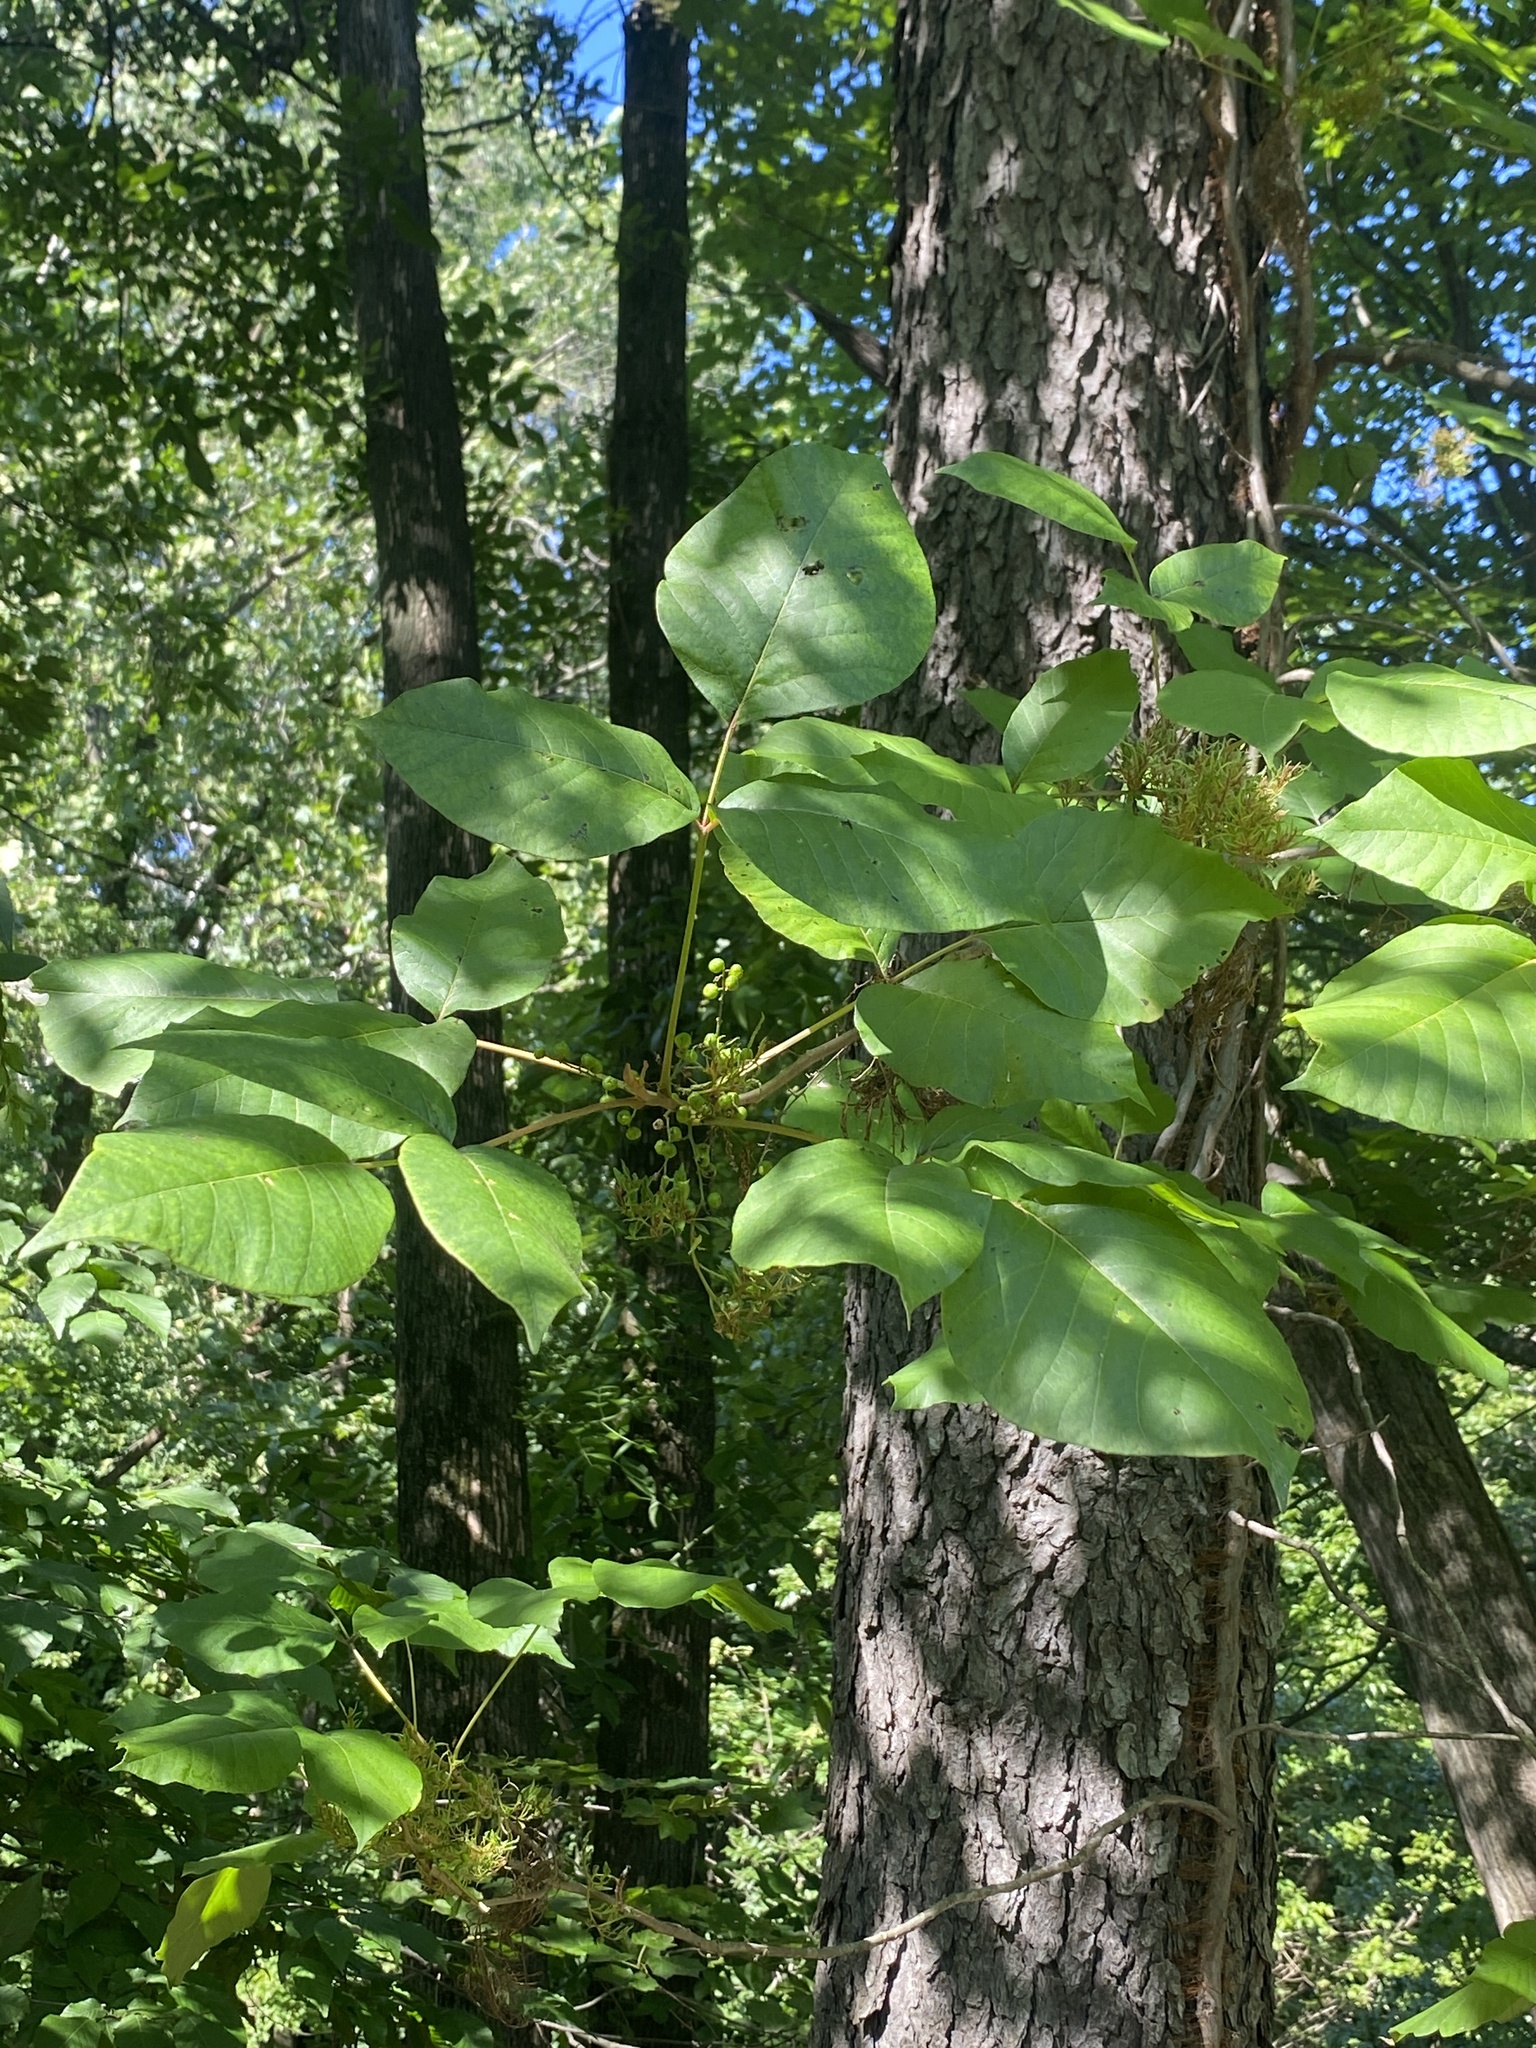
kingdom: Plantae
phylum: Tracheophyta
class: Magnoliopsida
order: Sapindales
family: Anacardiaceae
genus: Toxicodendron
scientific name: Toxicodendron radicans
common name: Poison ivy
